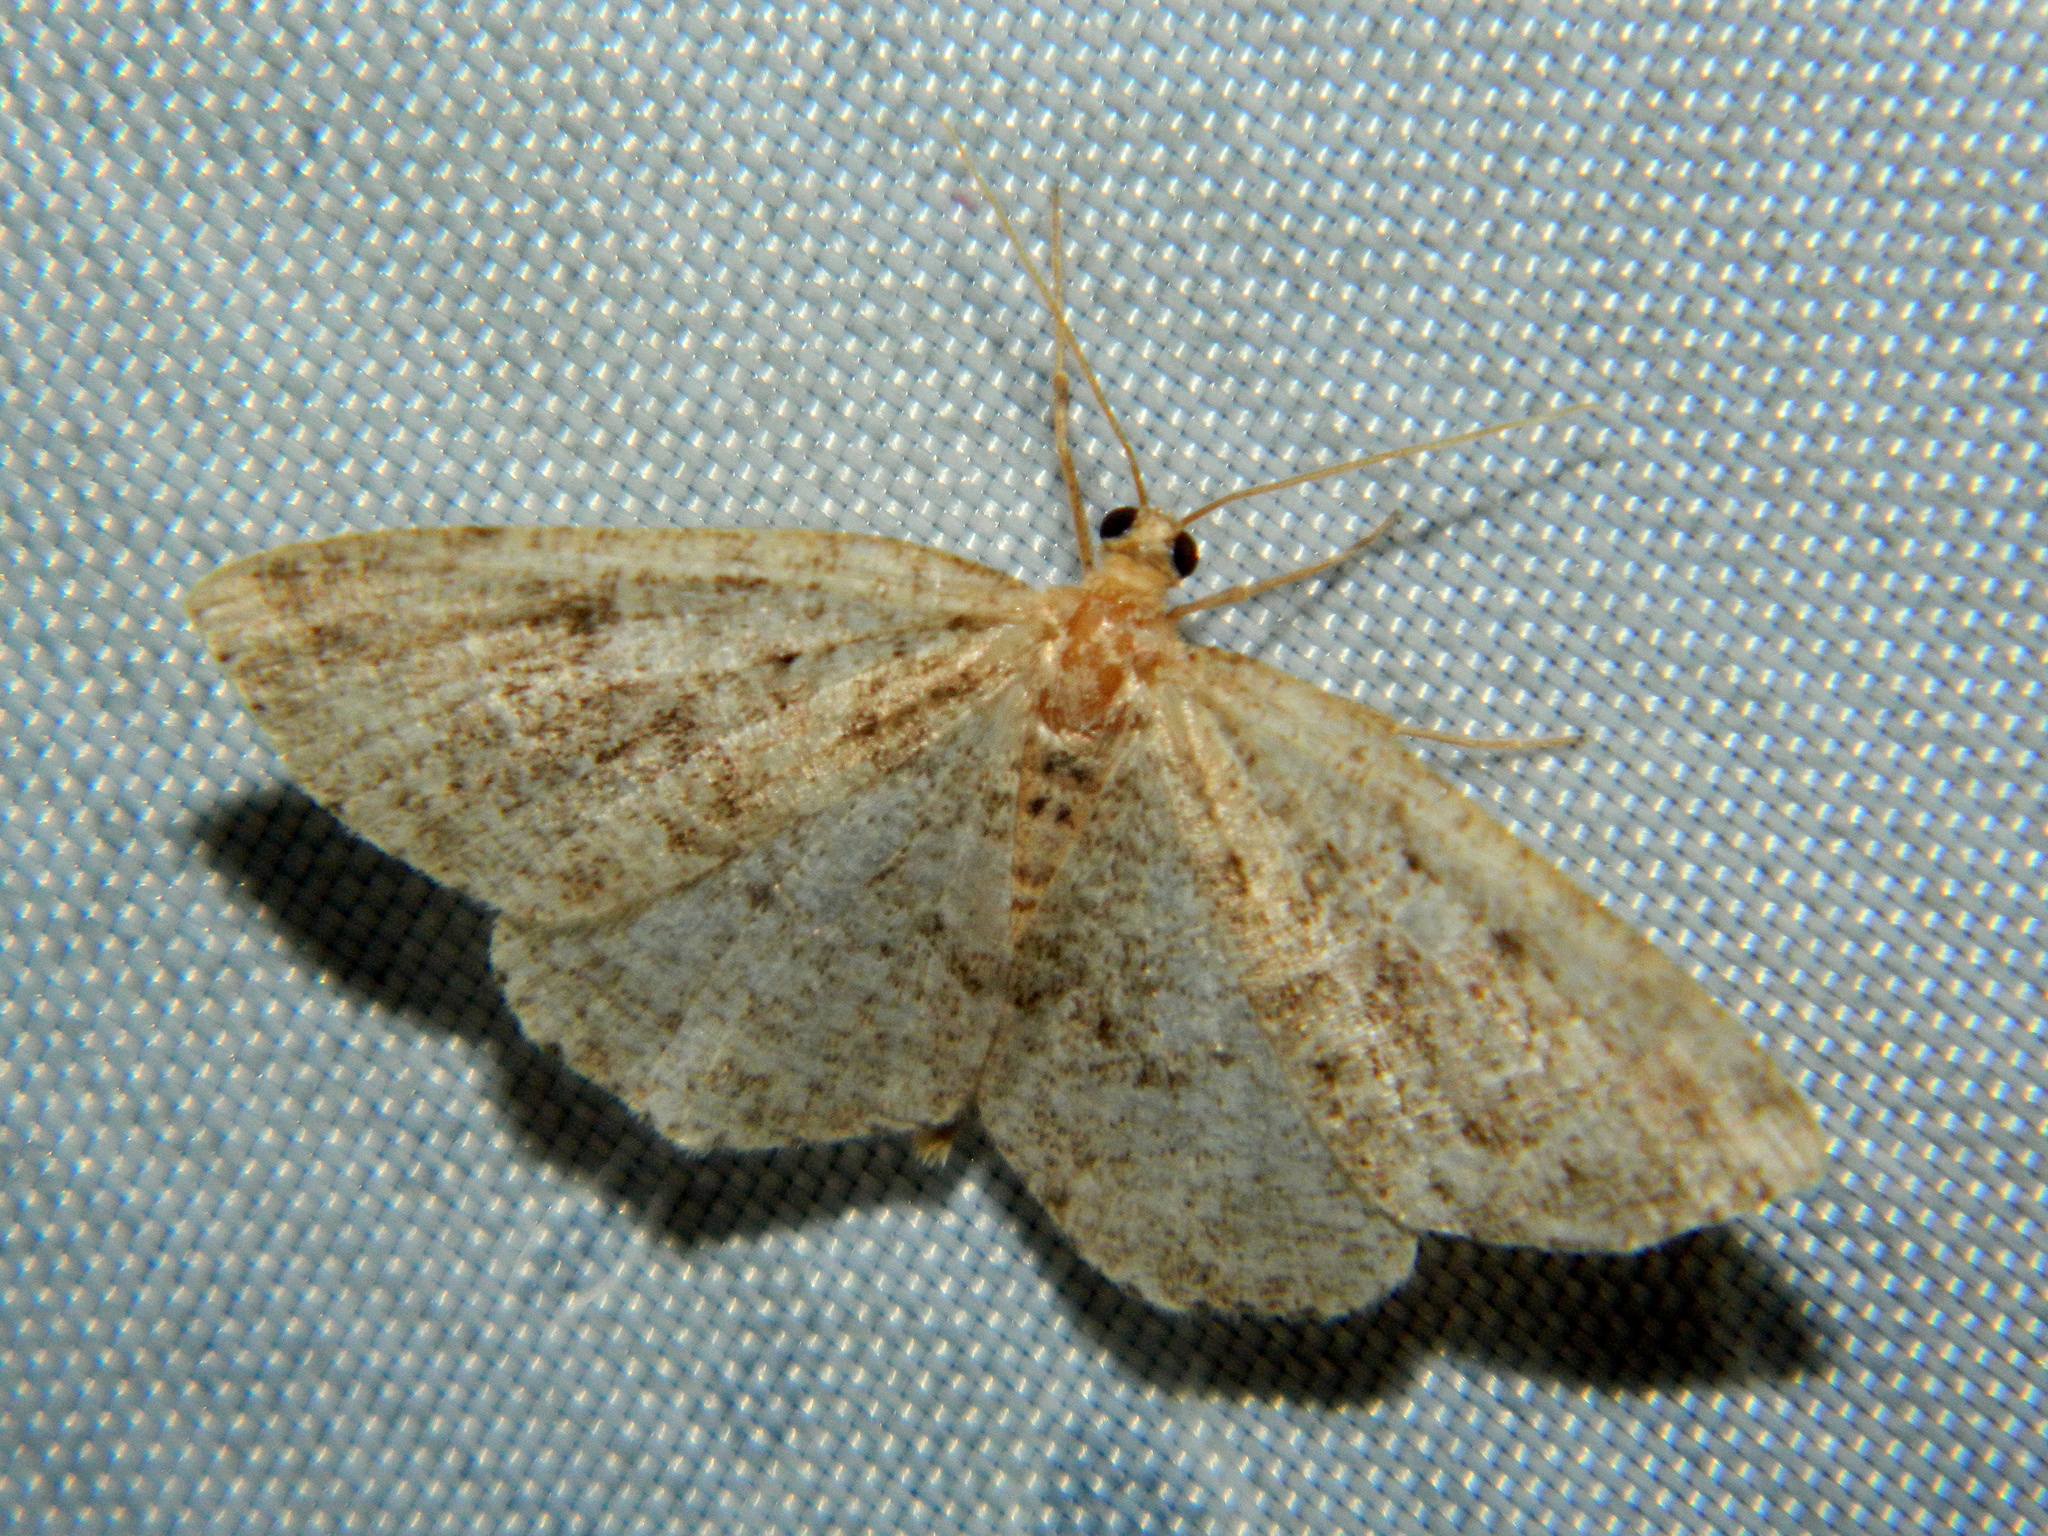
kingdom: Animalia
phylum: Arthropoda
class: Insecta
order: Lepidoptera
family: Geometridae
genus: Homochlodes
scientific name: Homochlodes fritillaria
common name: Pale homochlodes
